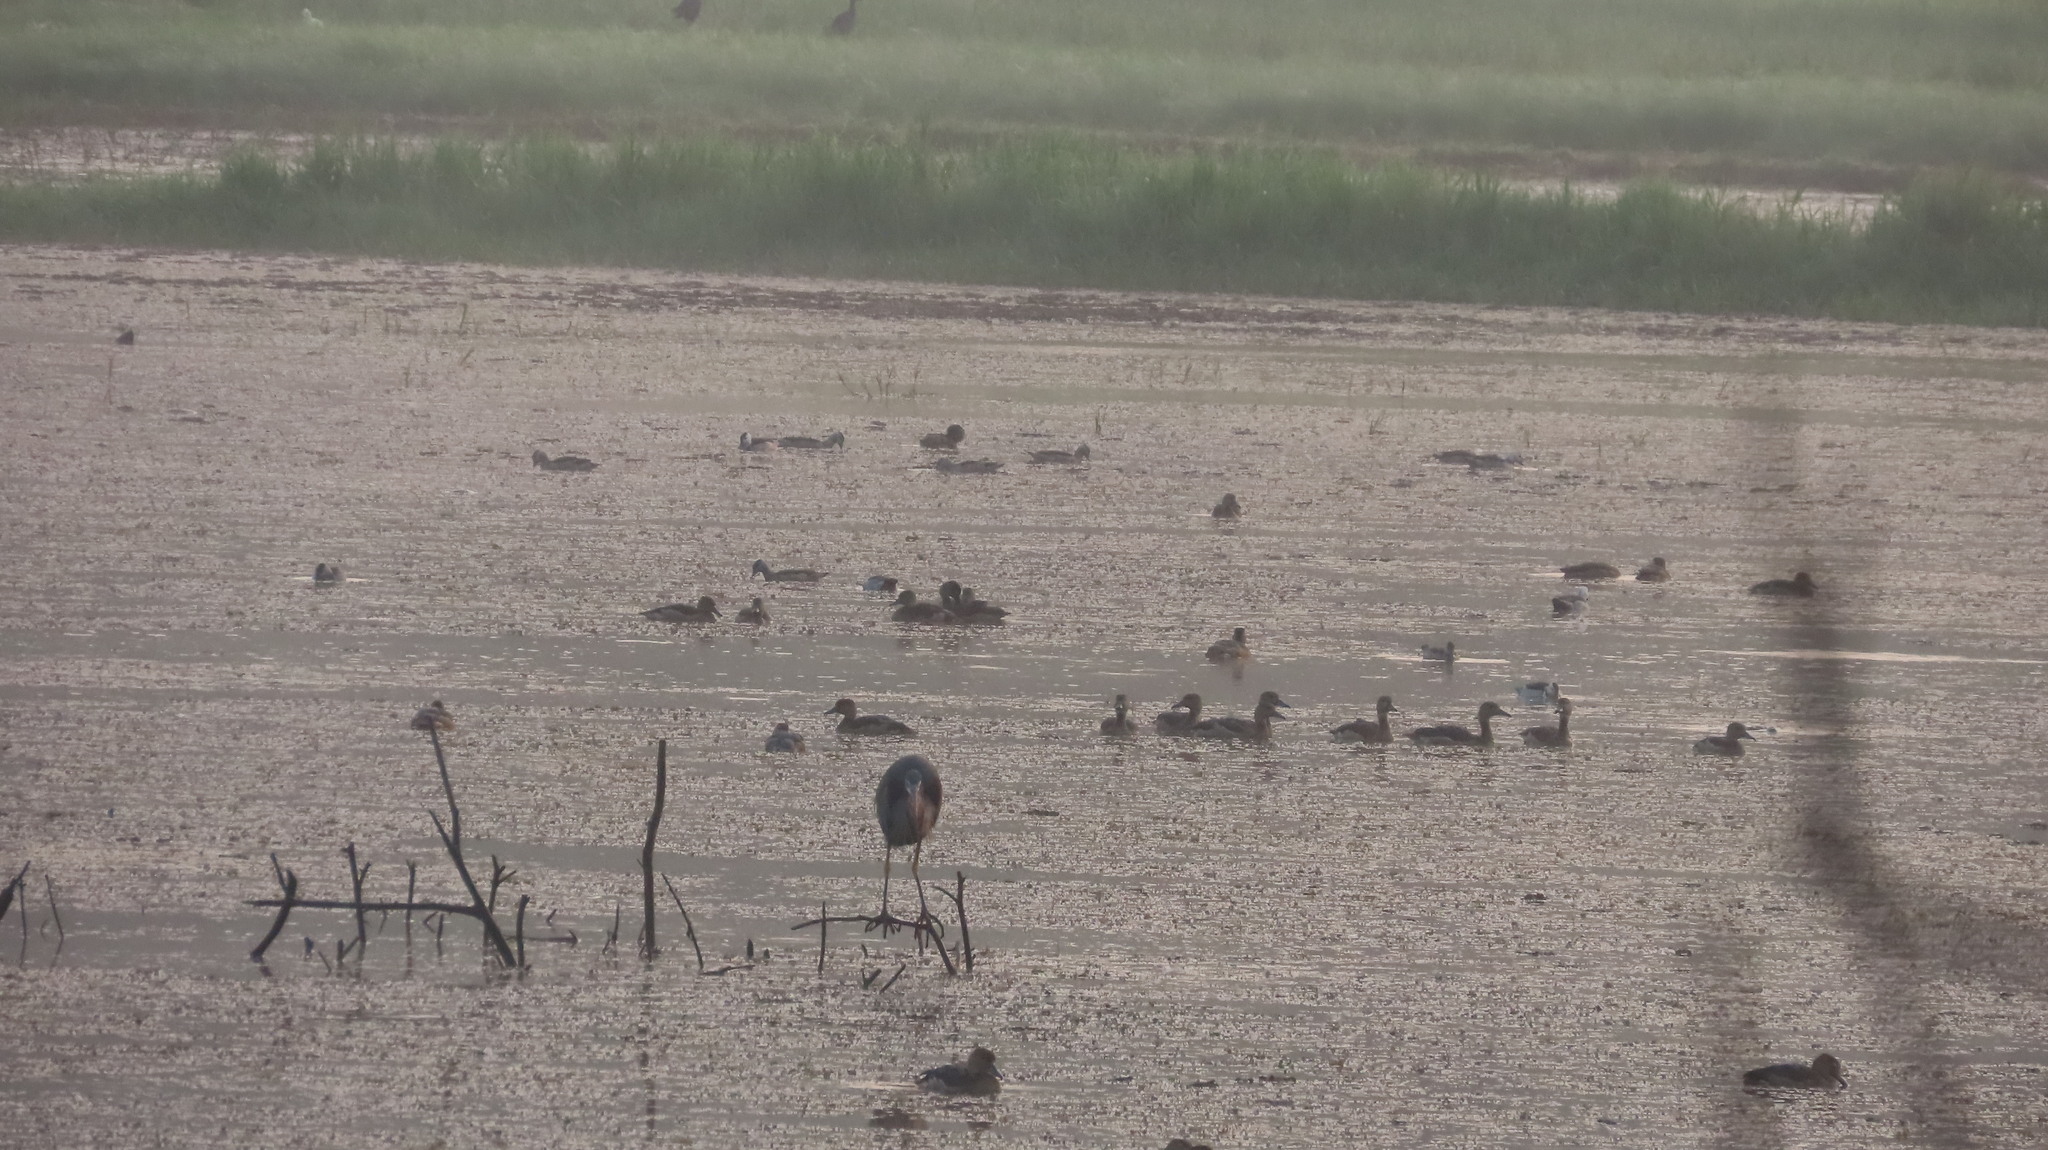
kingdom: Animalia
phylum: Chordata
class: Aves
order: Pelecaniformes
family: Ardeidae
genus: Ardea
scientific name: Ardea purpurea
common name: Purple heron
